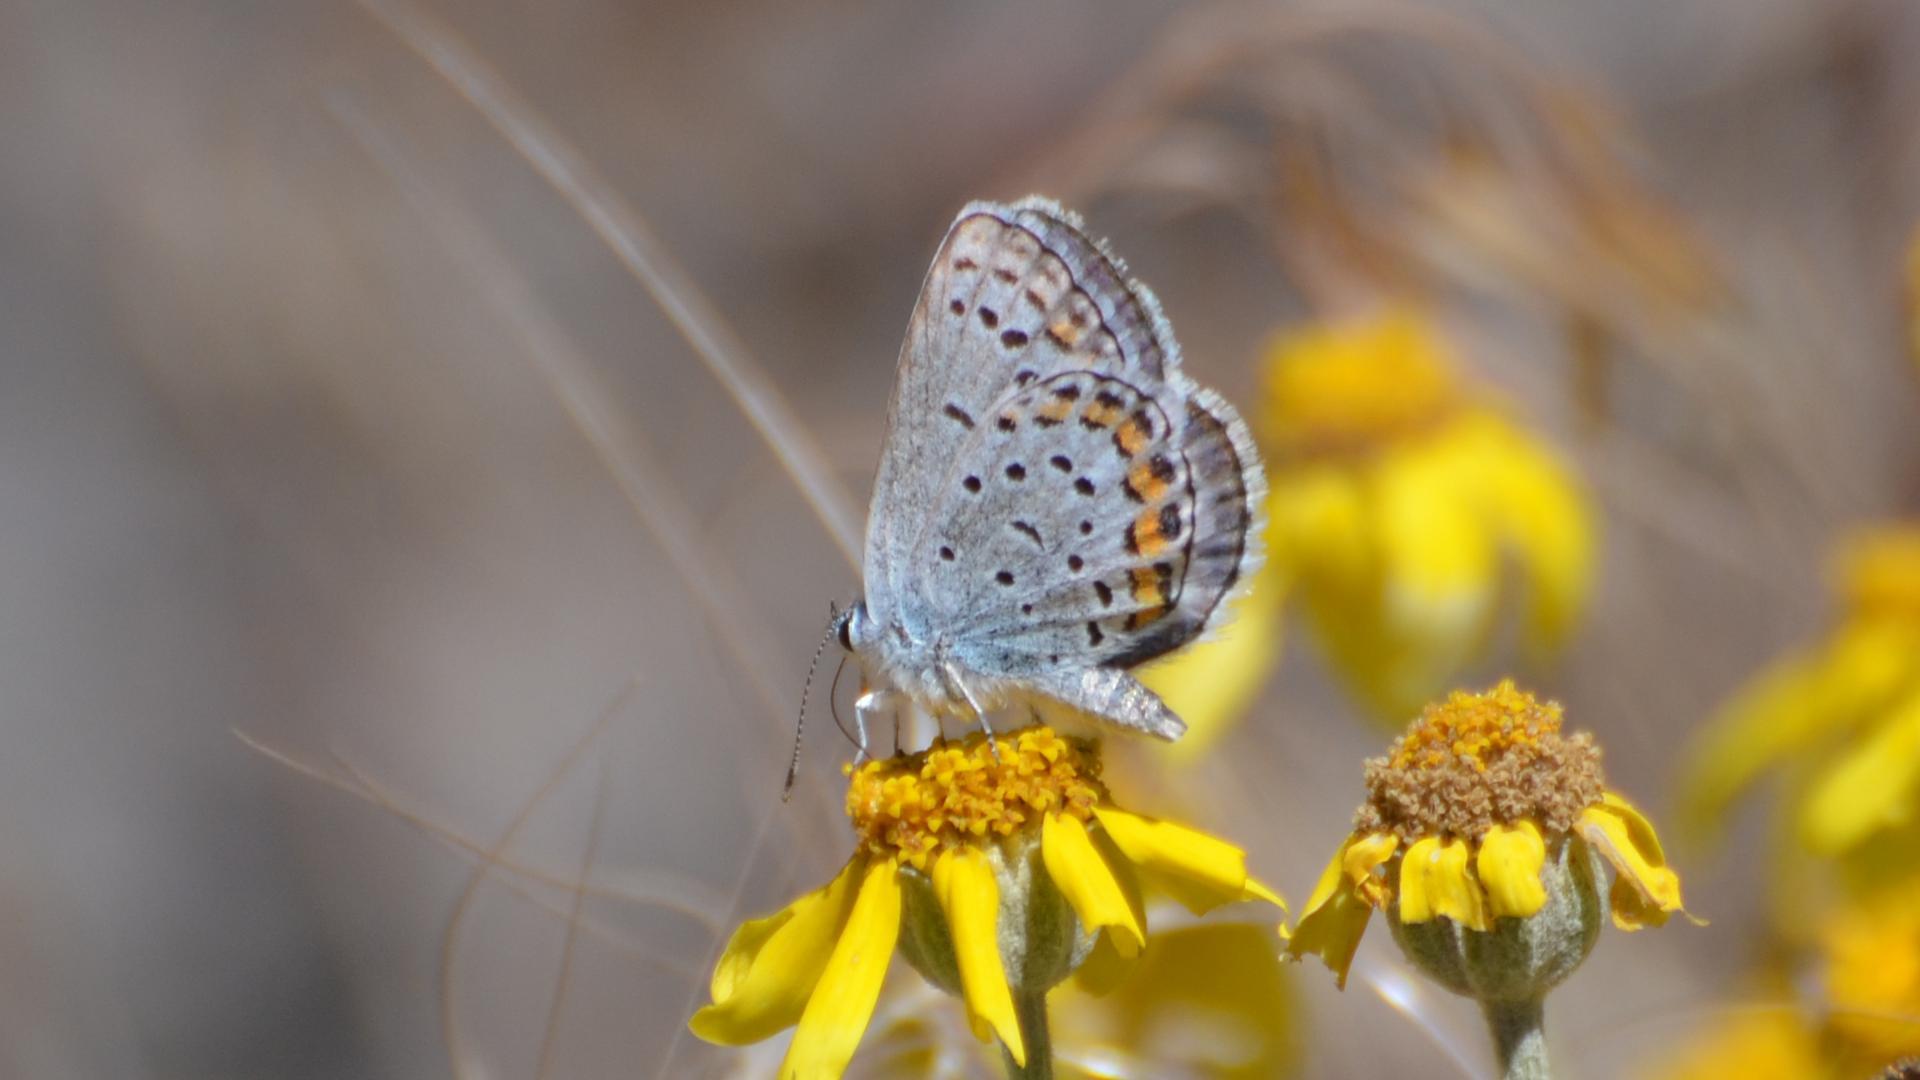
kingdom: Animalia
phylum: Arthropoda
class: Insecta
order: Lepidoptera
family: Lycaenidae
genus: Lycaeides
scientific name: Lycaeides melissa
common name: Melissa blue
